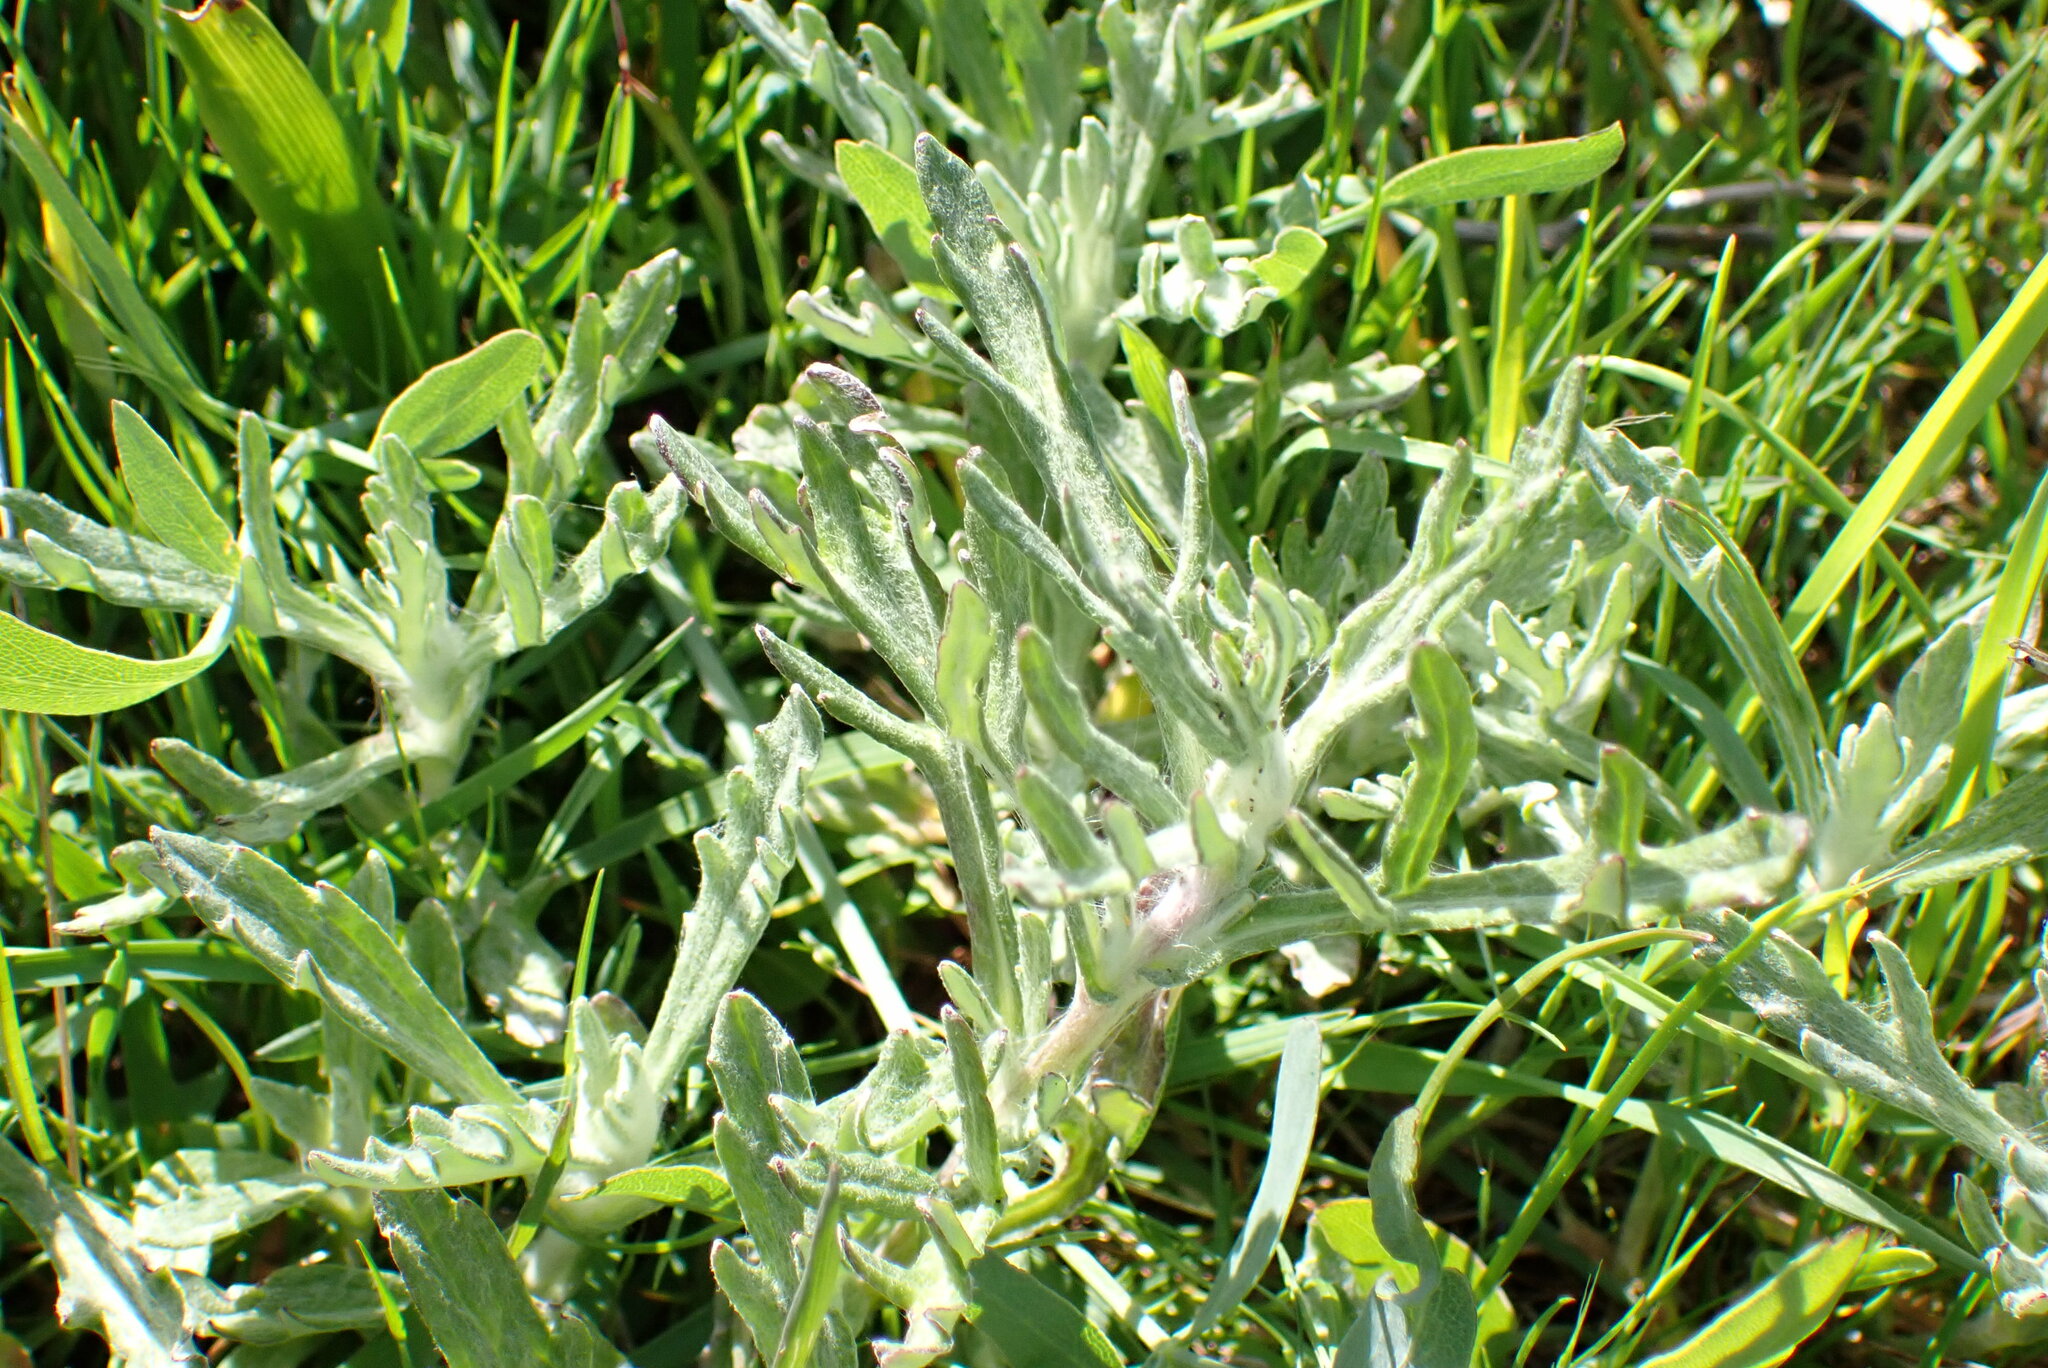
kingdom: Plantae
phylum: Tracheophyta
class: Magnoliopsida
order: Asterales
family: Asteraceae
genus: Eriophyllum
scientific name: Eriophyllum lanatum
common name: Common woolly-sunflower
